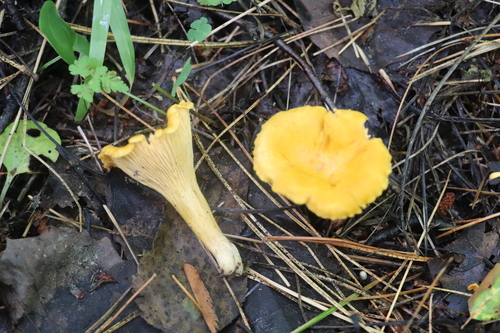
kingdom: Fungi
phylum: Basidiomycota
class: Agaricomycetes
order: Cantharellales
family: Hydnaceae
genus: Cantharellus
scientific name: Cantharellus cibarius
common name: Chanterelle
